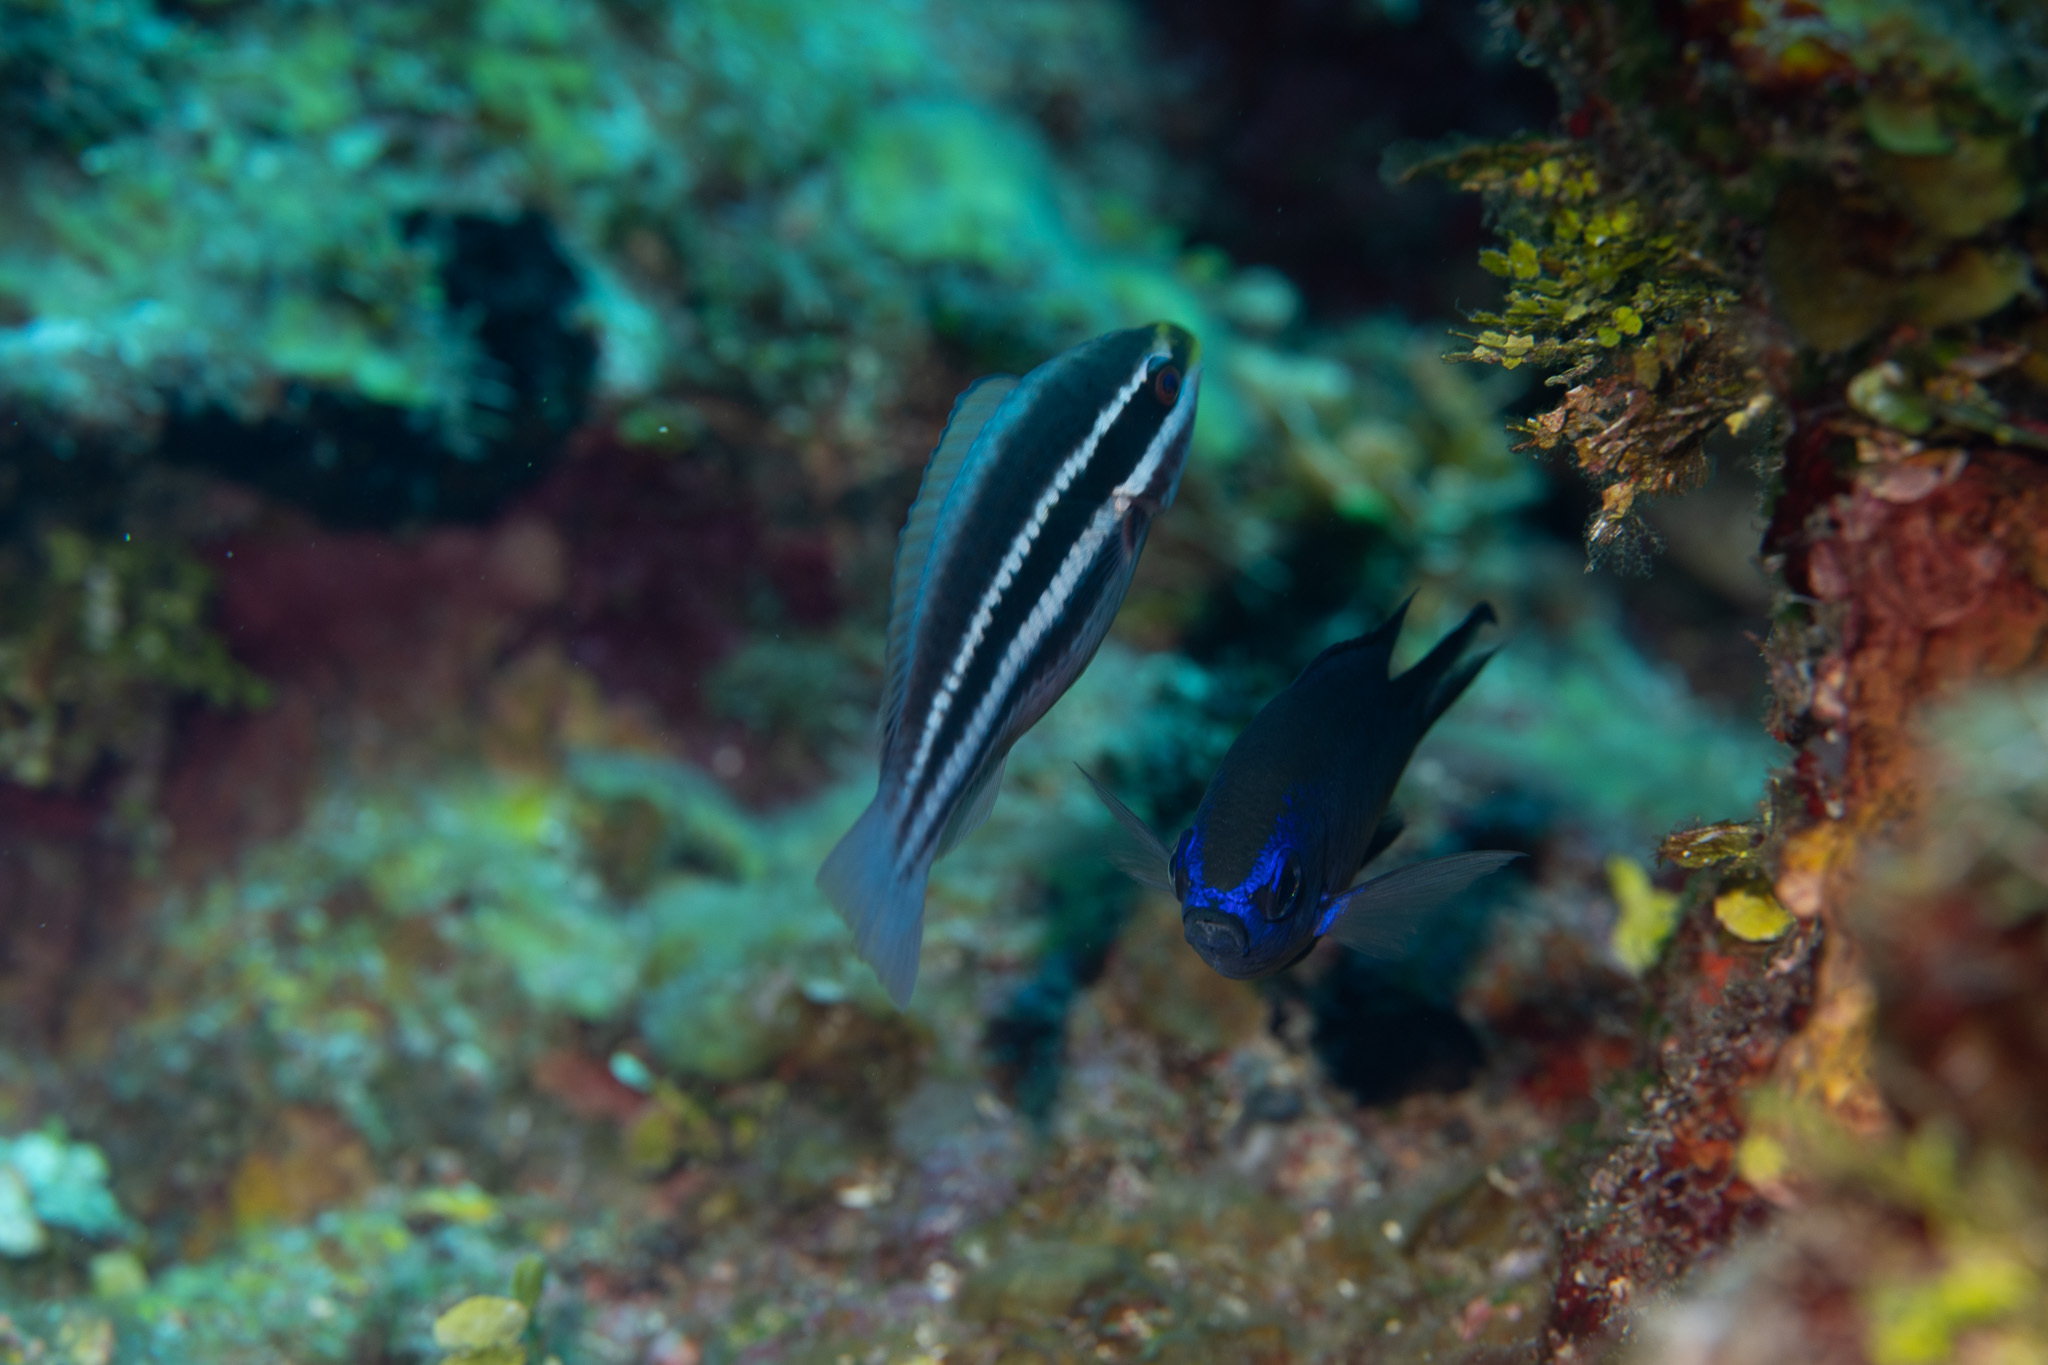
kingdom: Animalia
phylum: Chordata
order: Perciformes
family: Scaridae
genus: Scarus
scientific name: Scarus iseri
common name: Striped parrotfish
